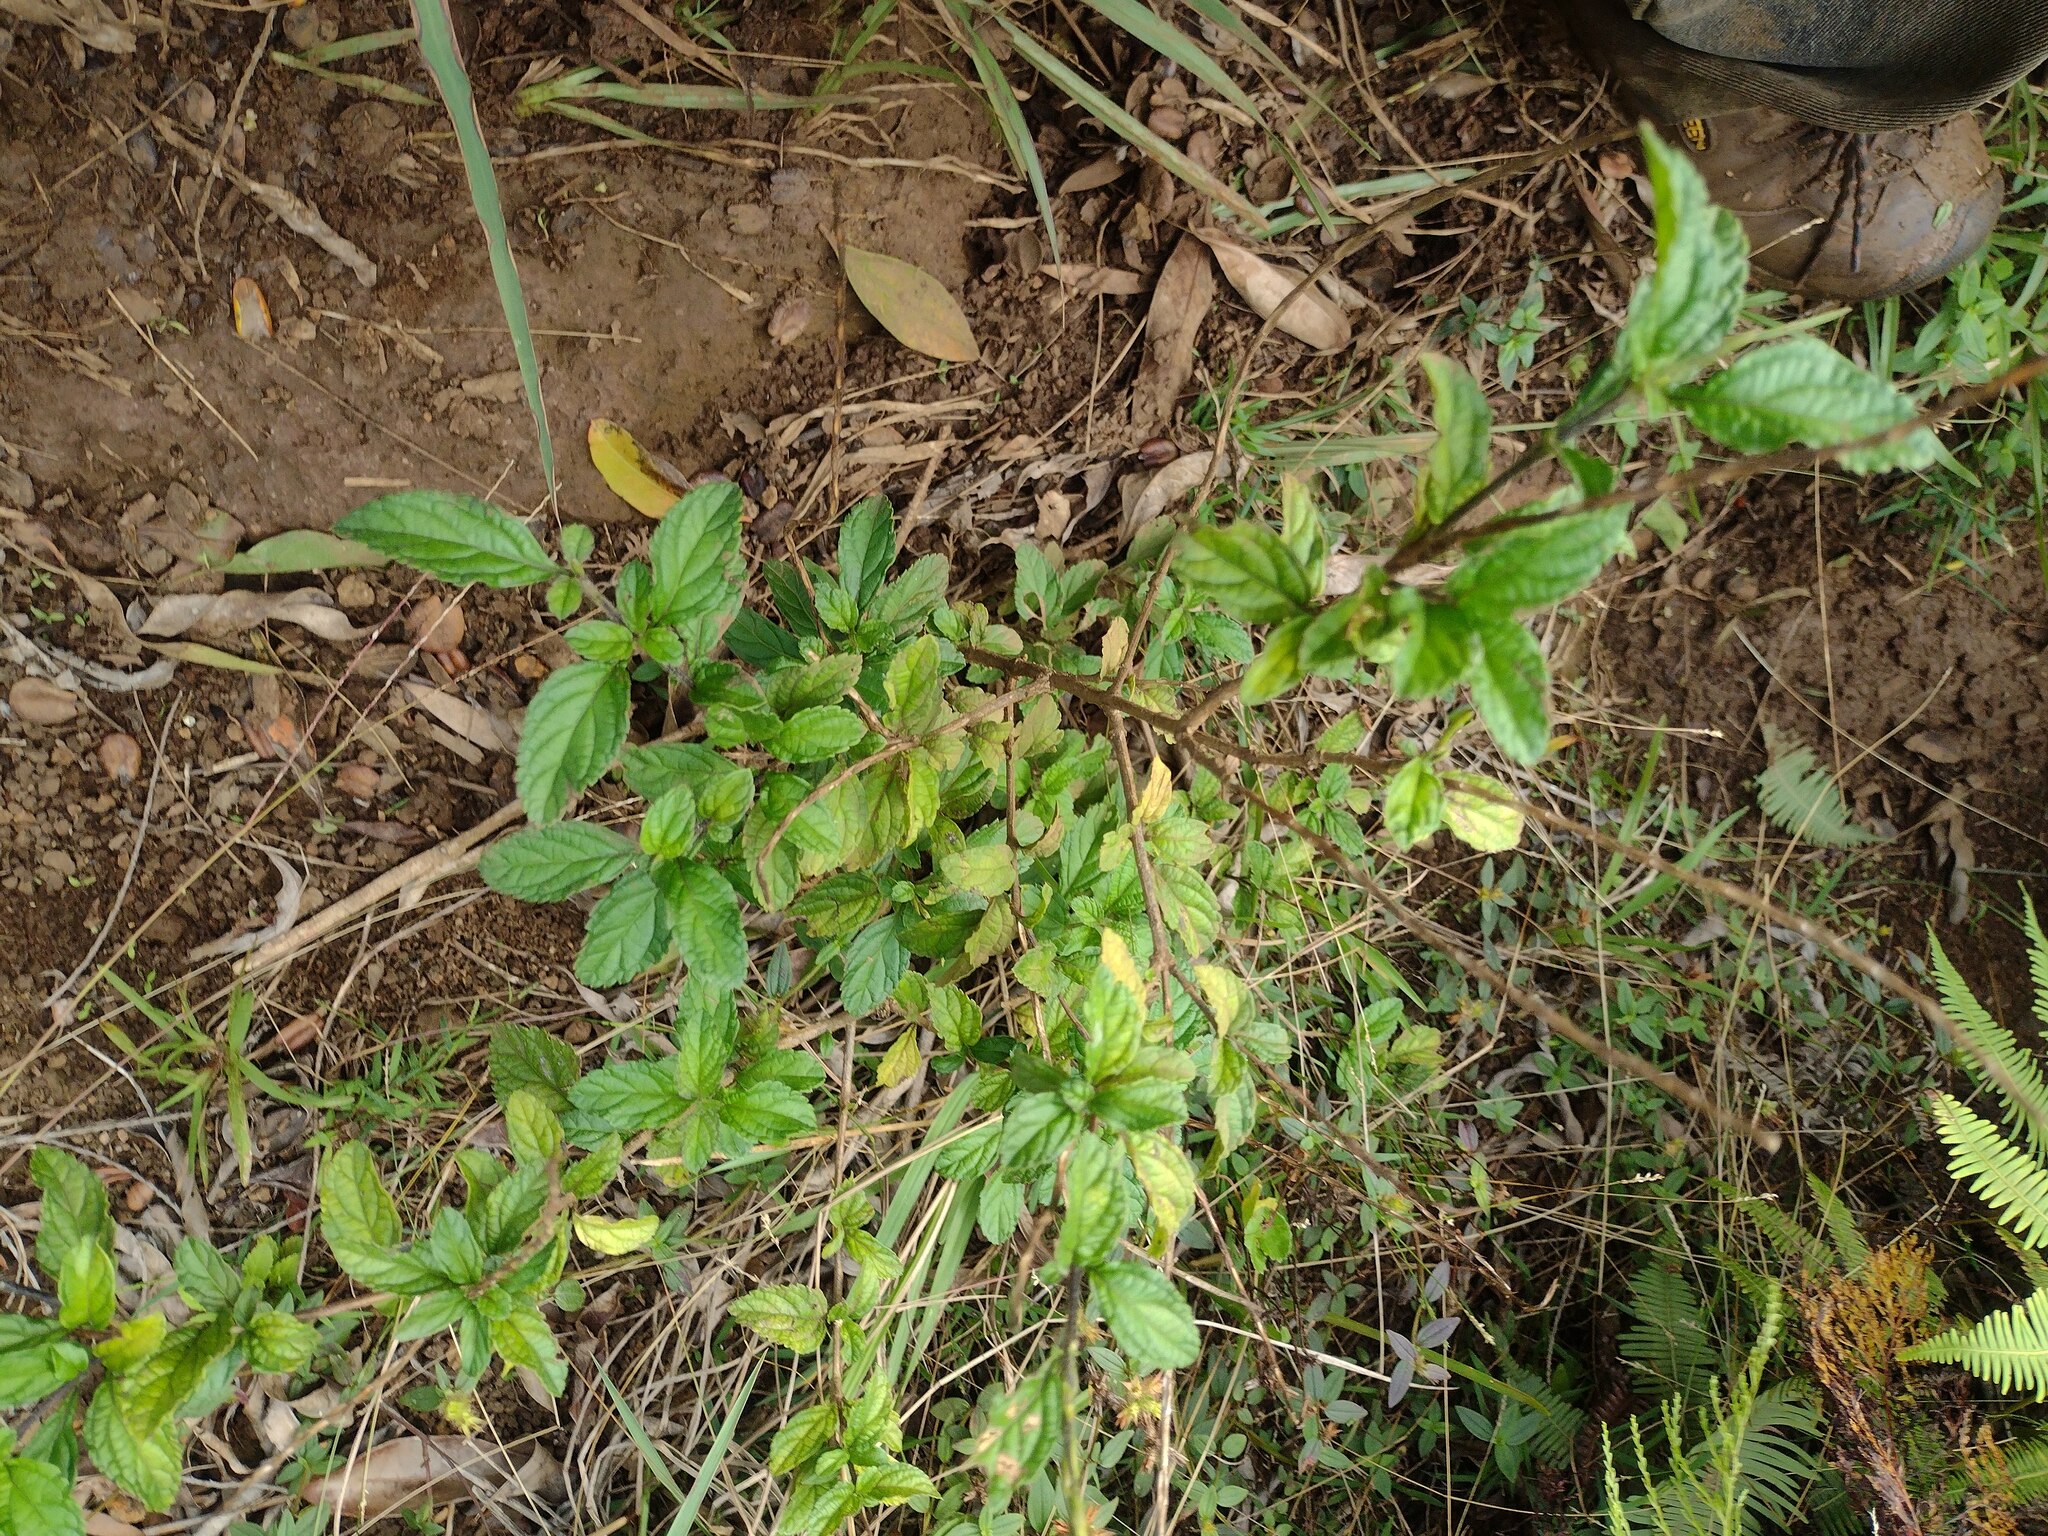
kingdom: Plantae
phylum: Tracheophyta
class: Magnoliopsida
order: Lamiales
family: Verbenaceae
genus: Stachytarpheta
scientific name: Stachytarpheta cayennensis
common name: Cayenne porterweed
